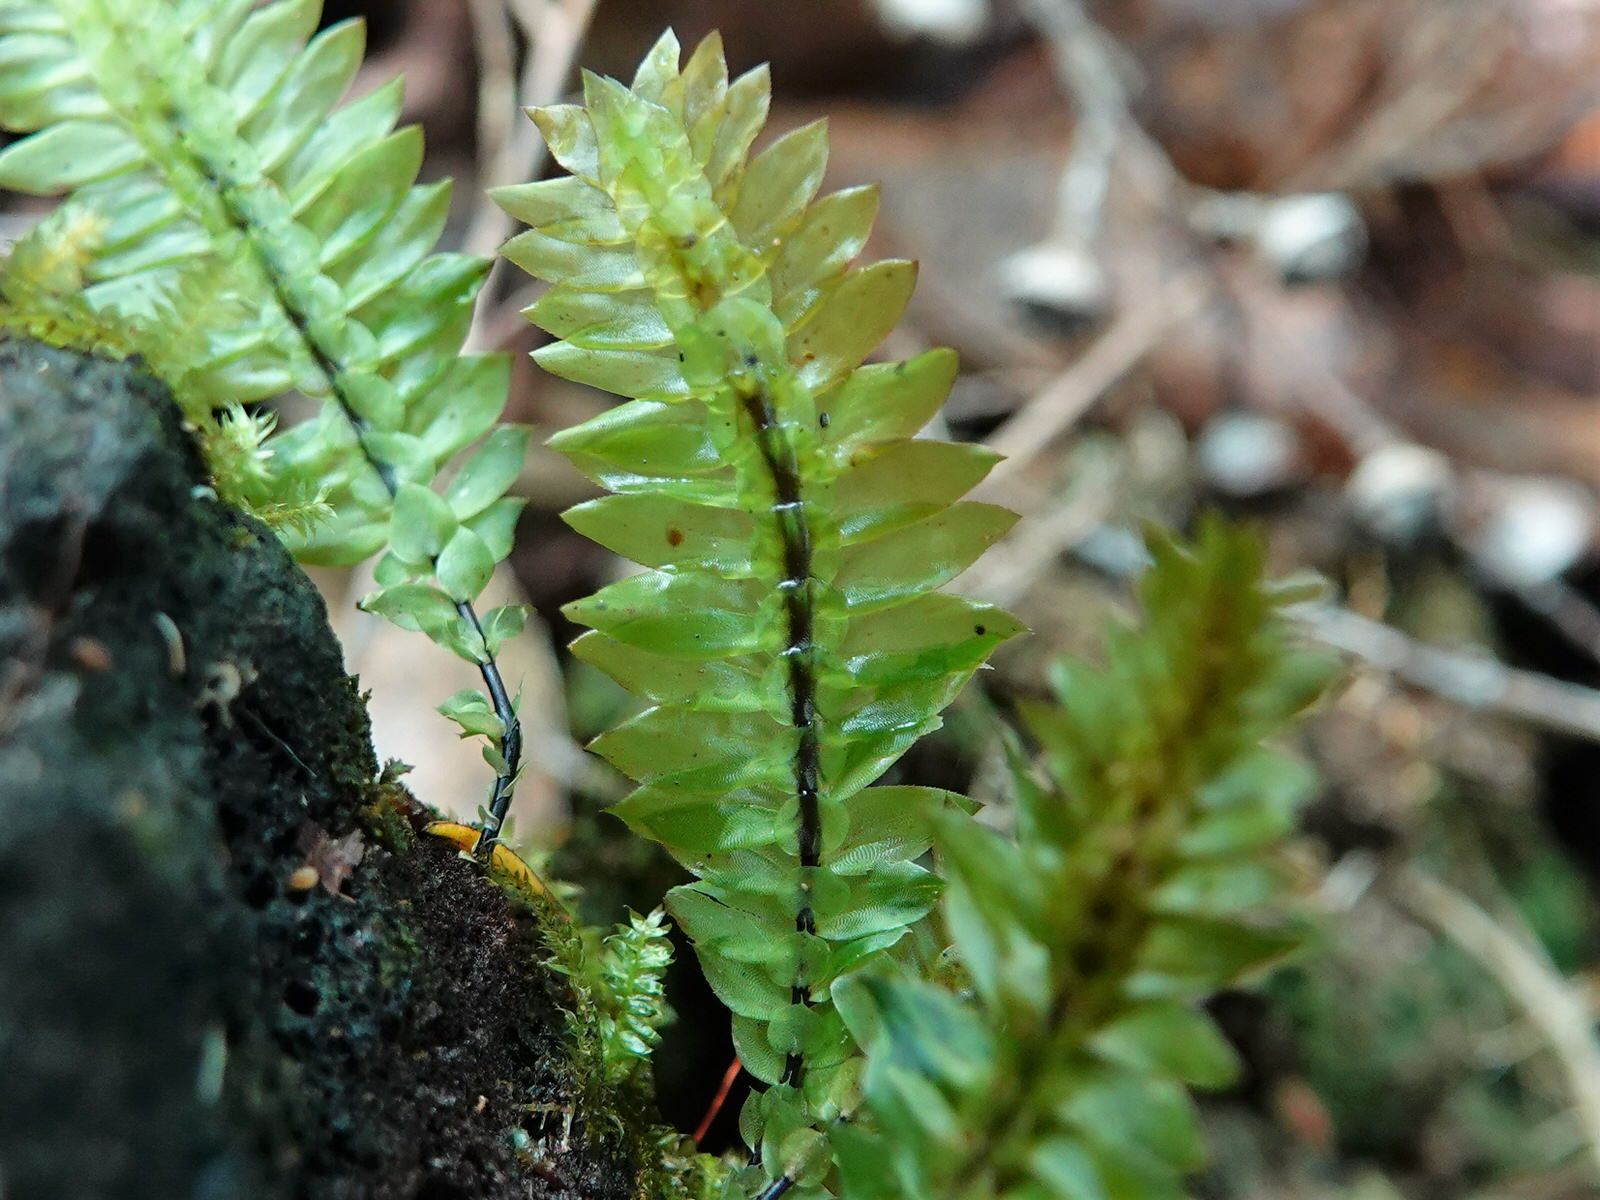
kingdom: Plantae
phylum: Bryophyta
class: Bryopsida
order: Hypopterygiales
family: Hypopterygiaceae
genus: Cyathophorum
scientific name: Cyathophorum bulbosum
